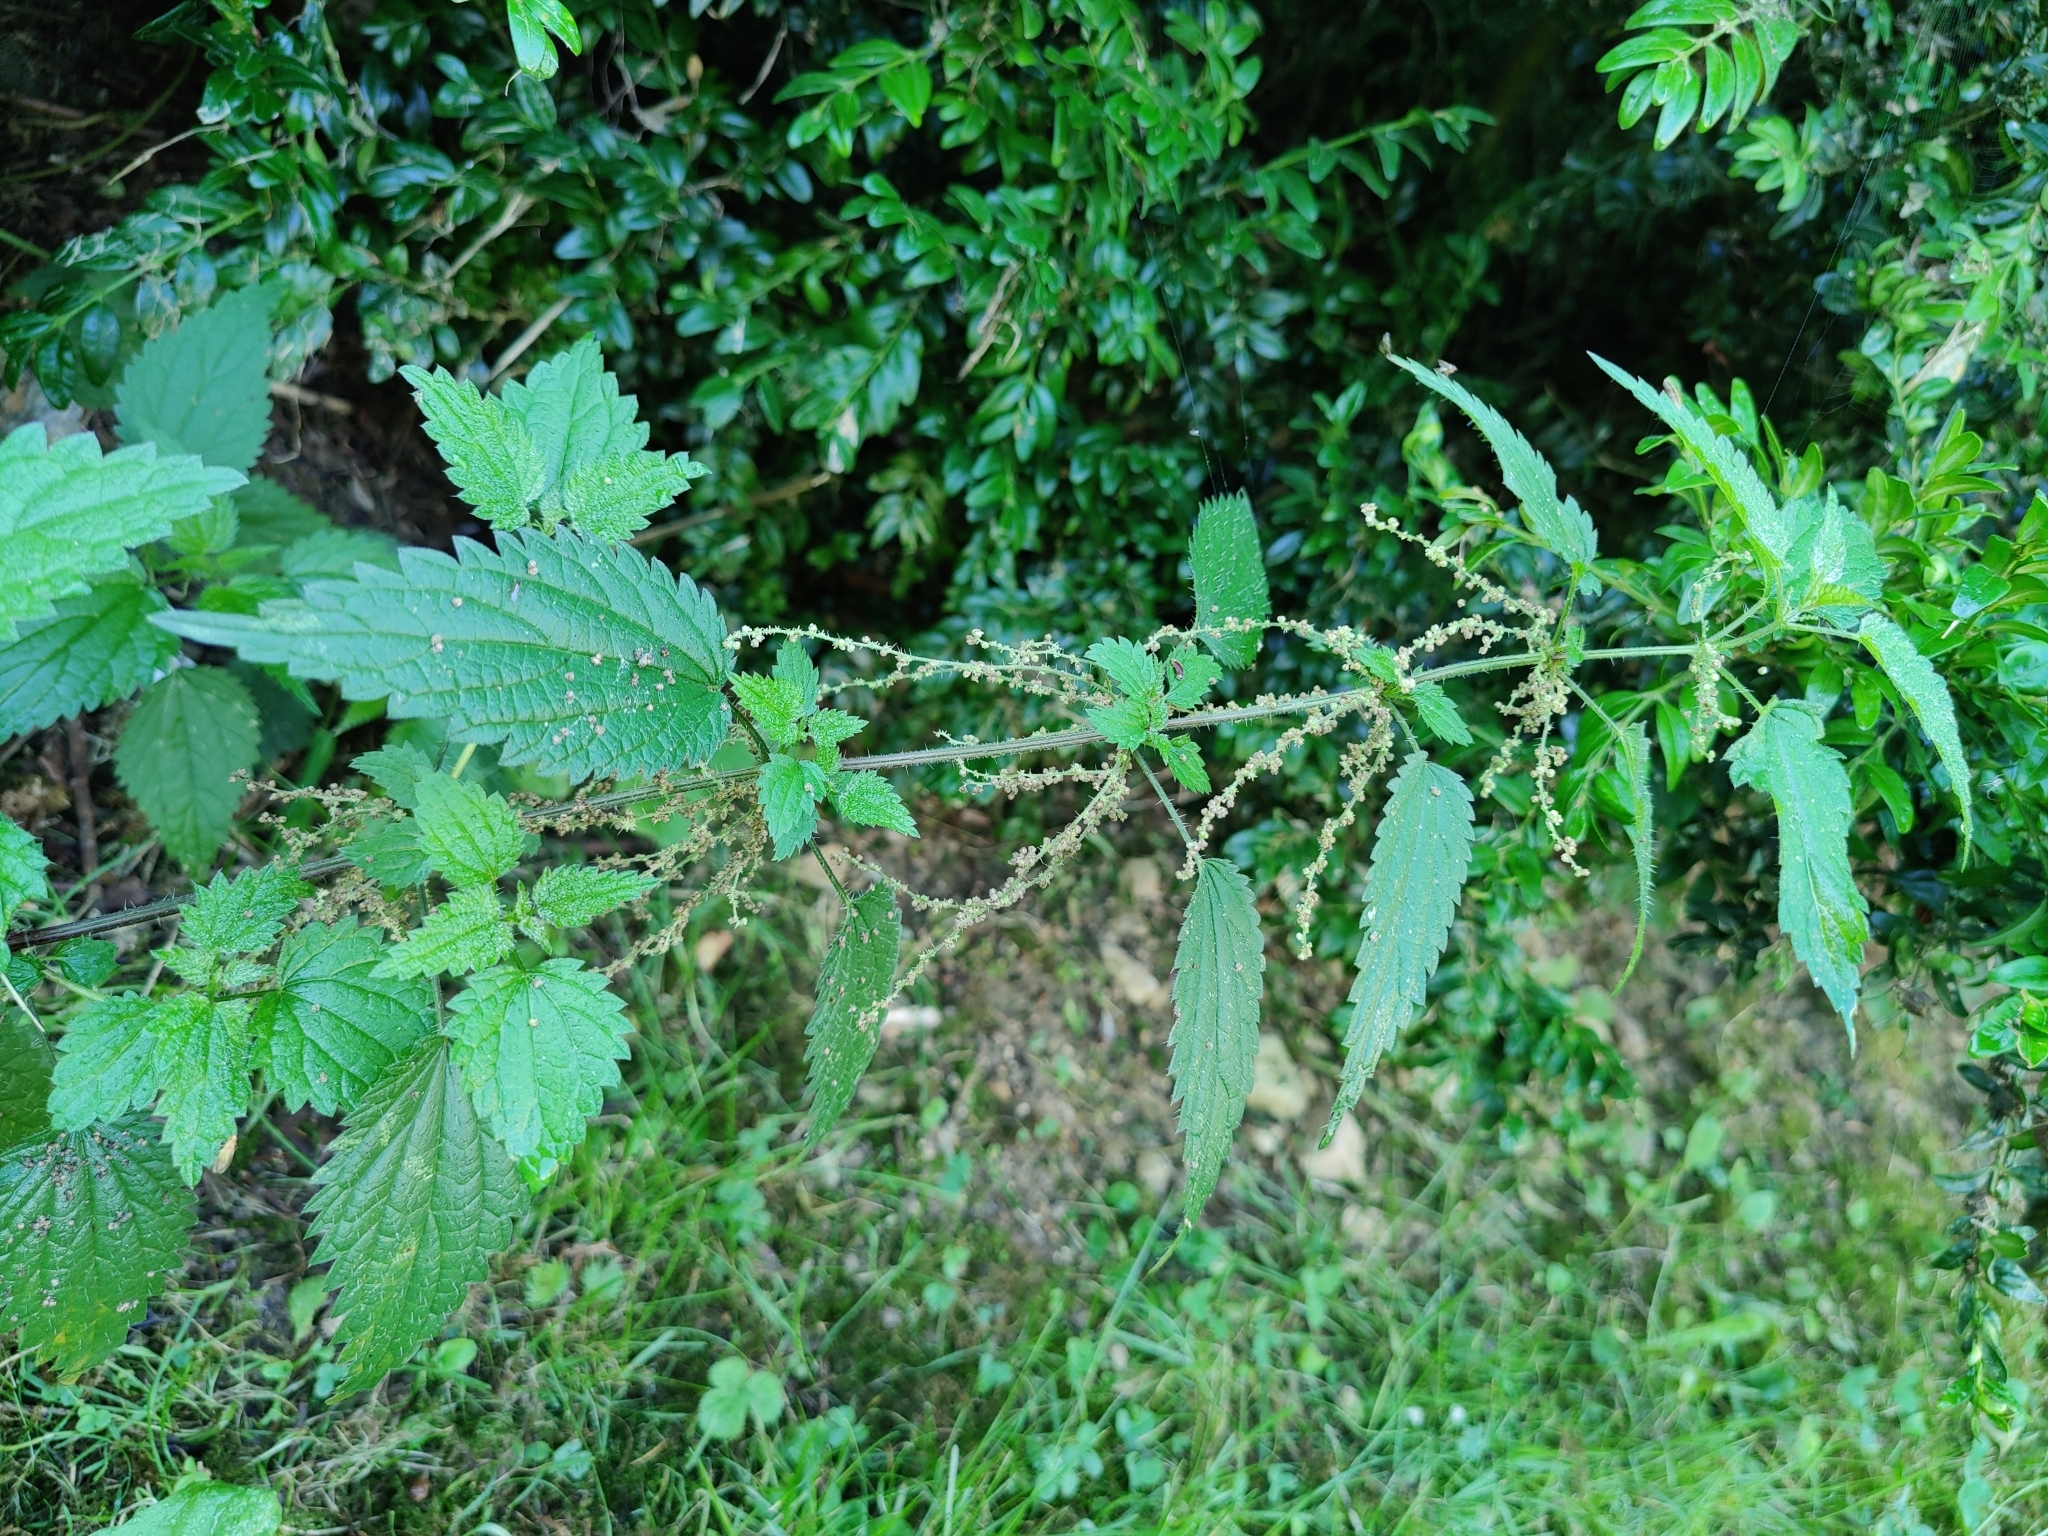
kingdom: Plantae
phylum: Tracheophyta
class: Magnoliopsida
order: Rosales
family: Urticaceae
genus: Urtica
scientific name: Urtica dioica
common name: Common nettle
